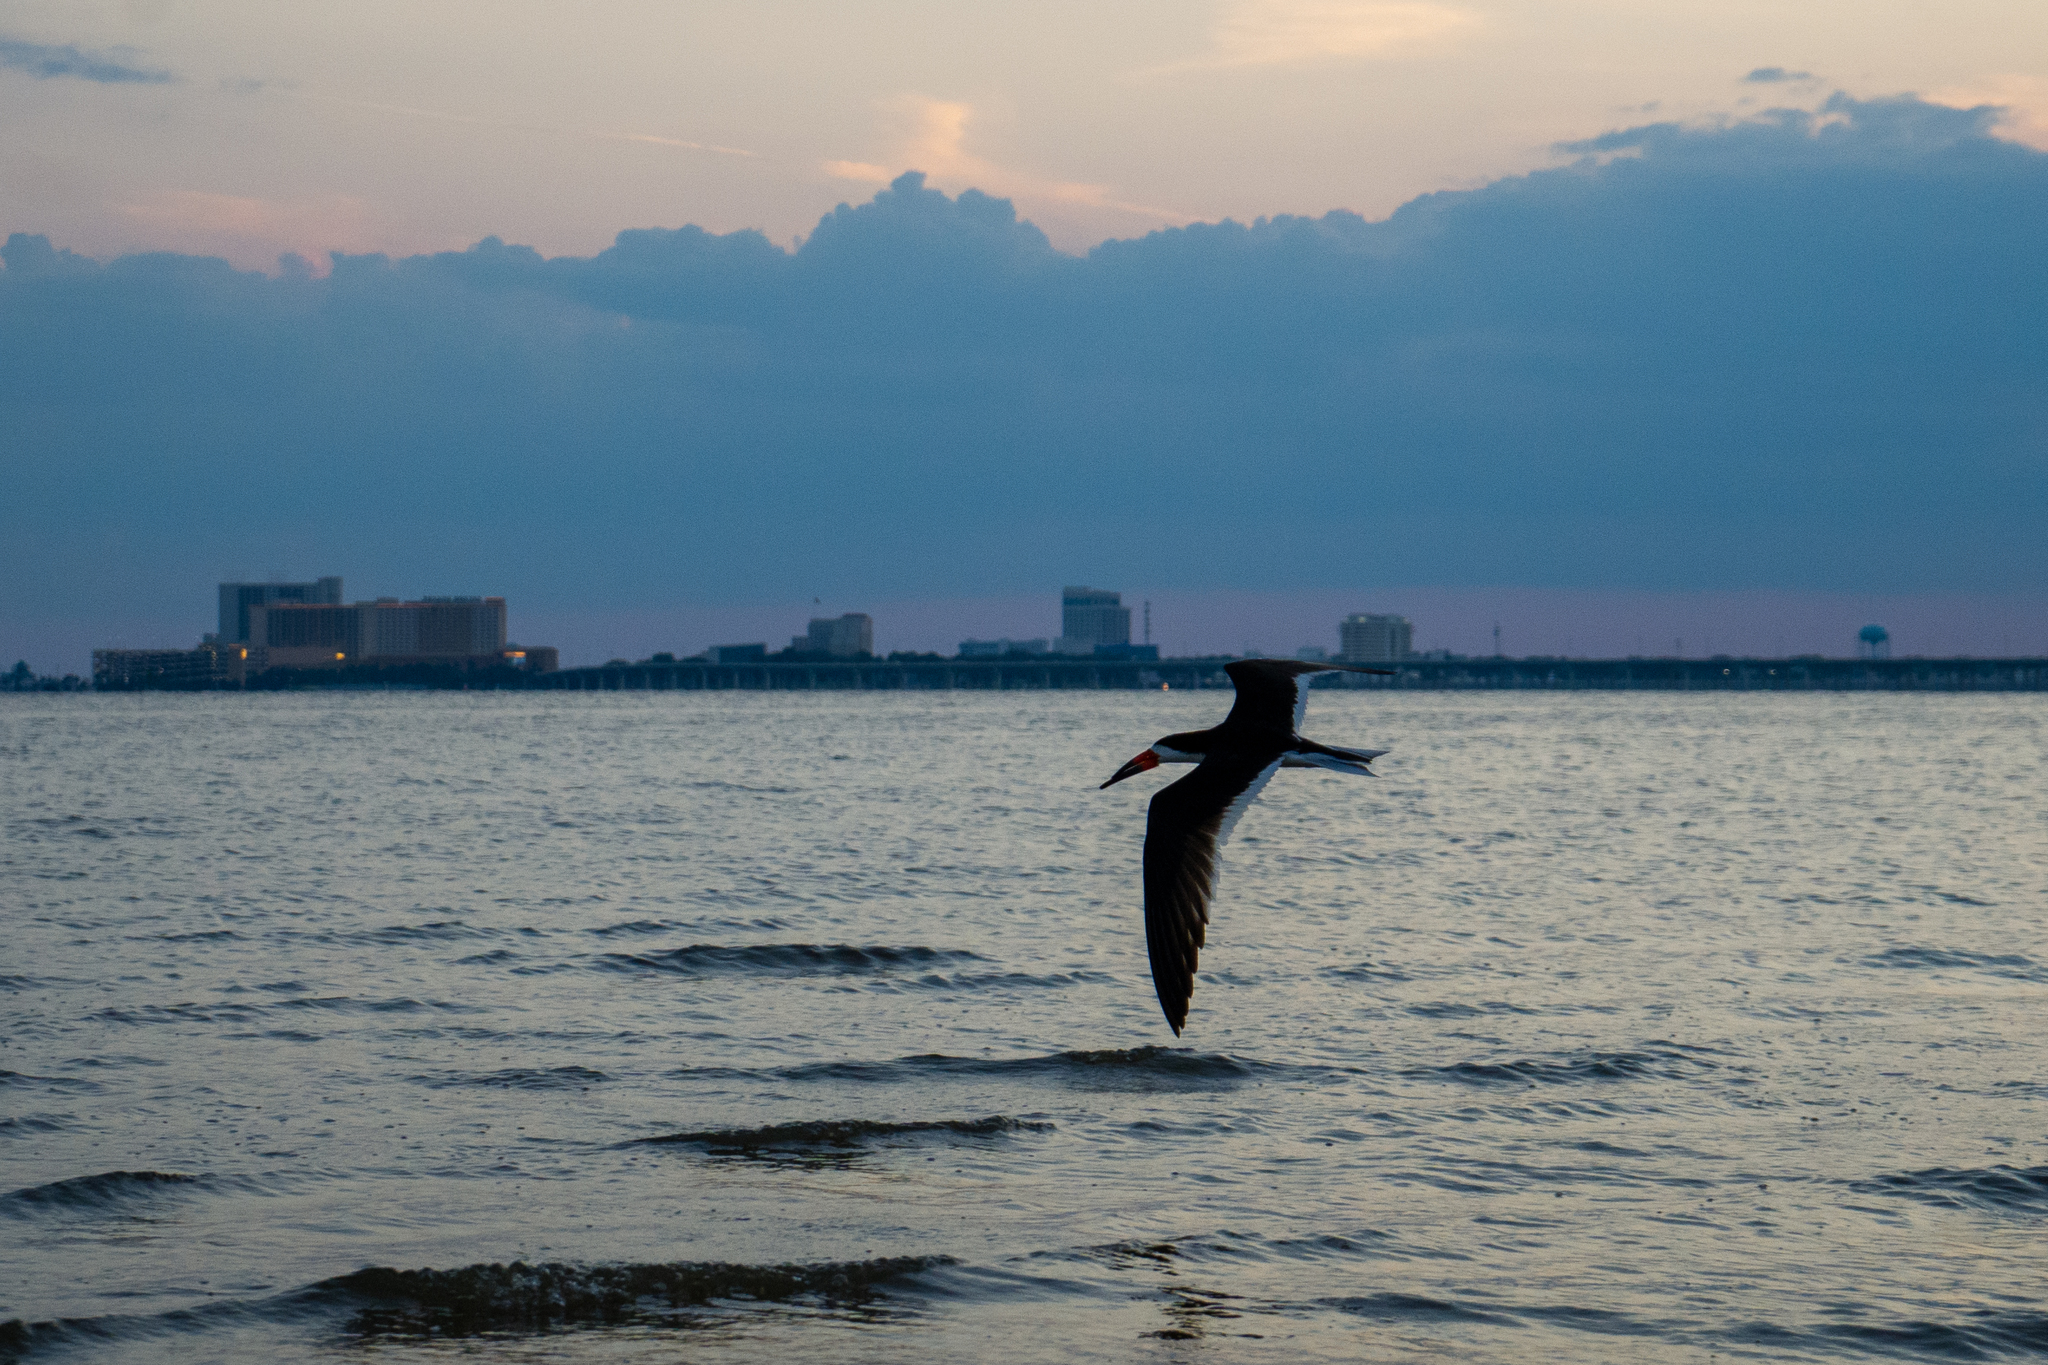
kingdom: Animalia
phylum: Chordata
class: Aves
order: Charadriiformes
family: Laridae
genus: Rynchops
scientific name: Rynchops niger
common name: Black skimmer
